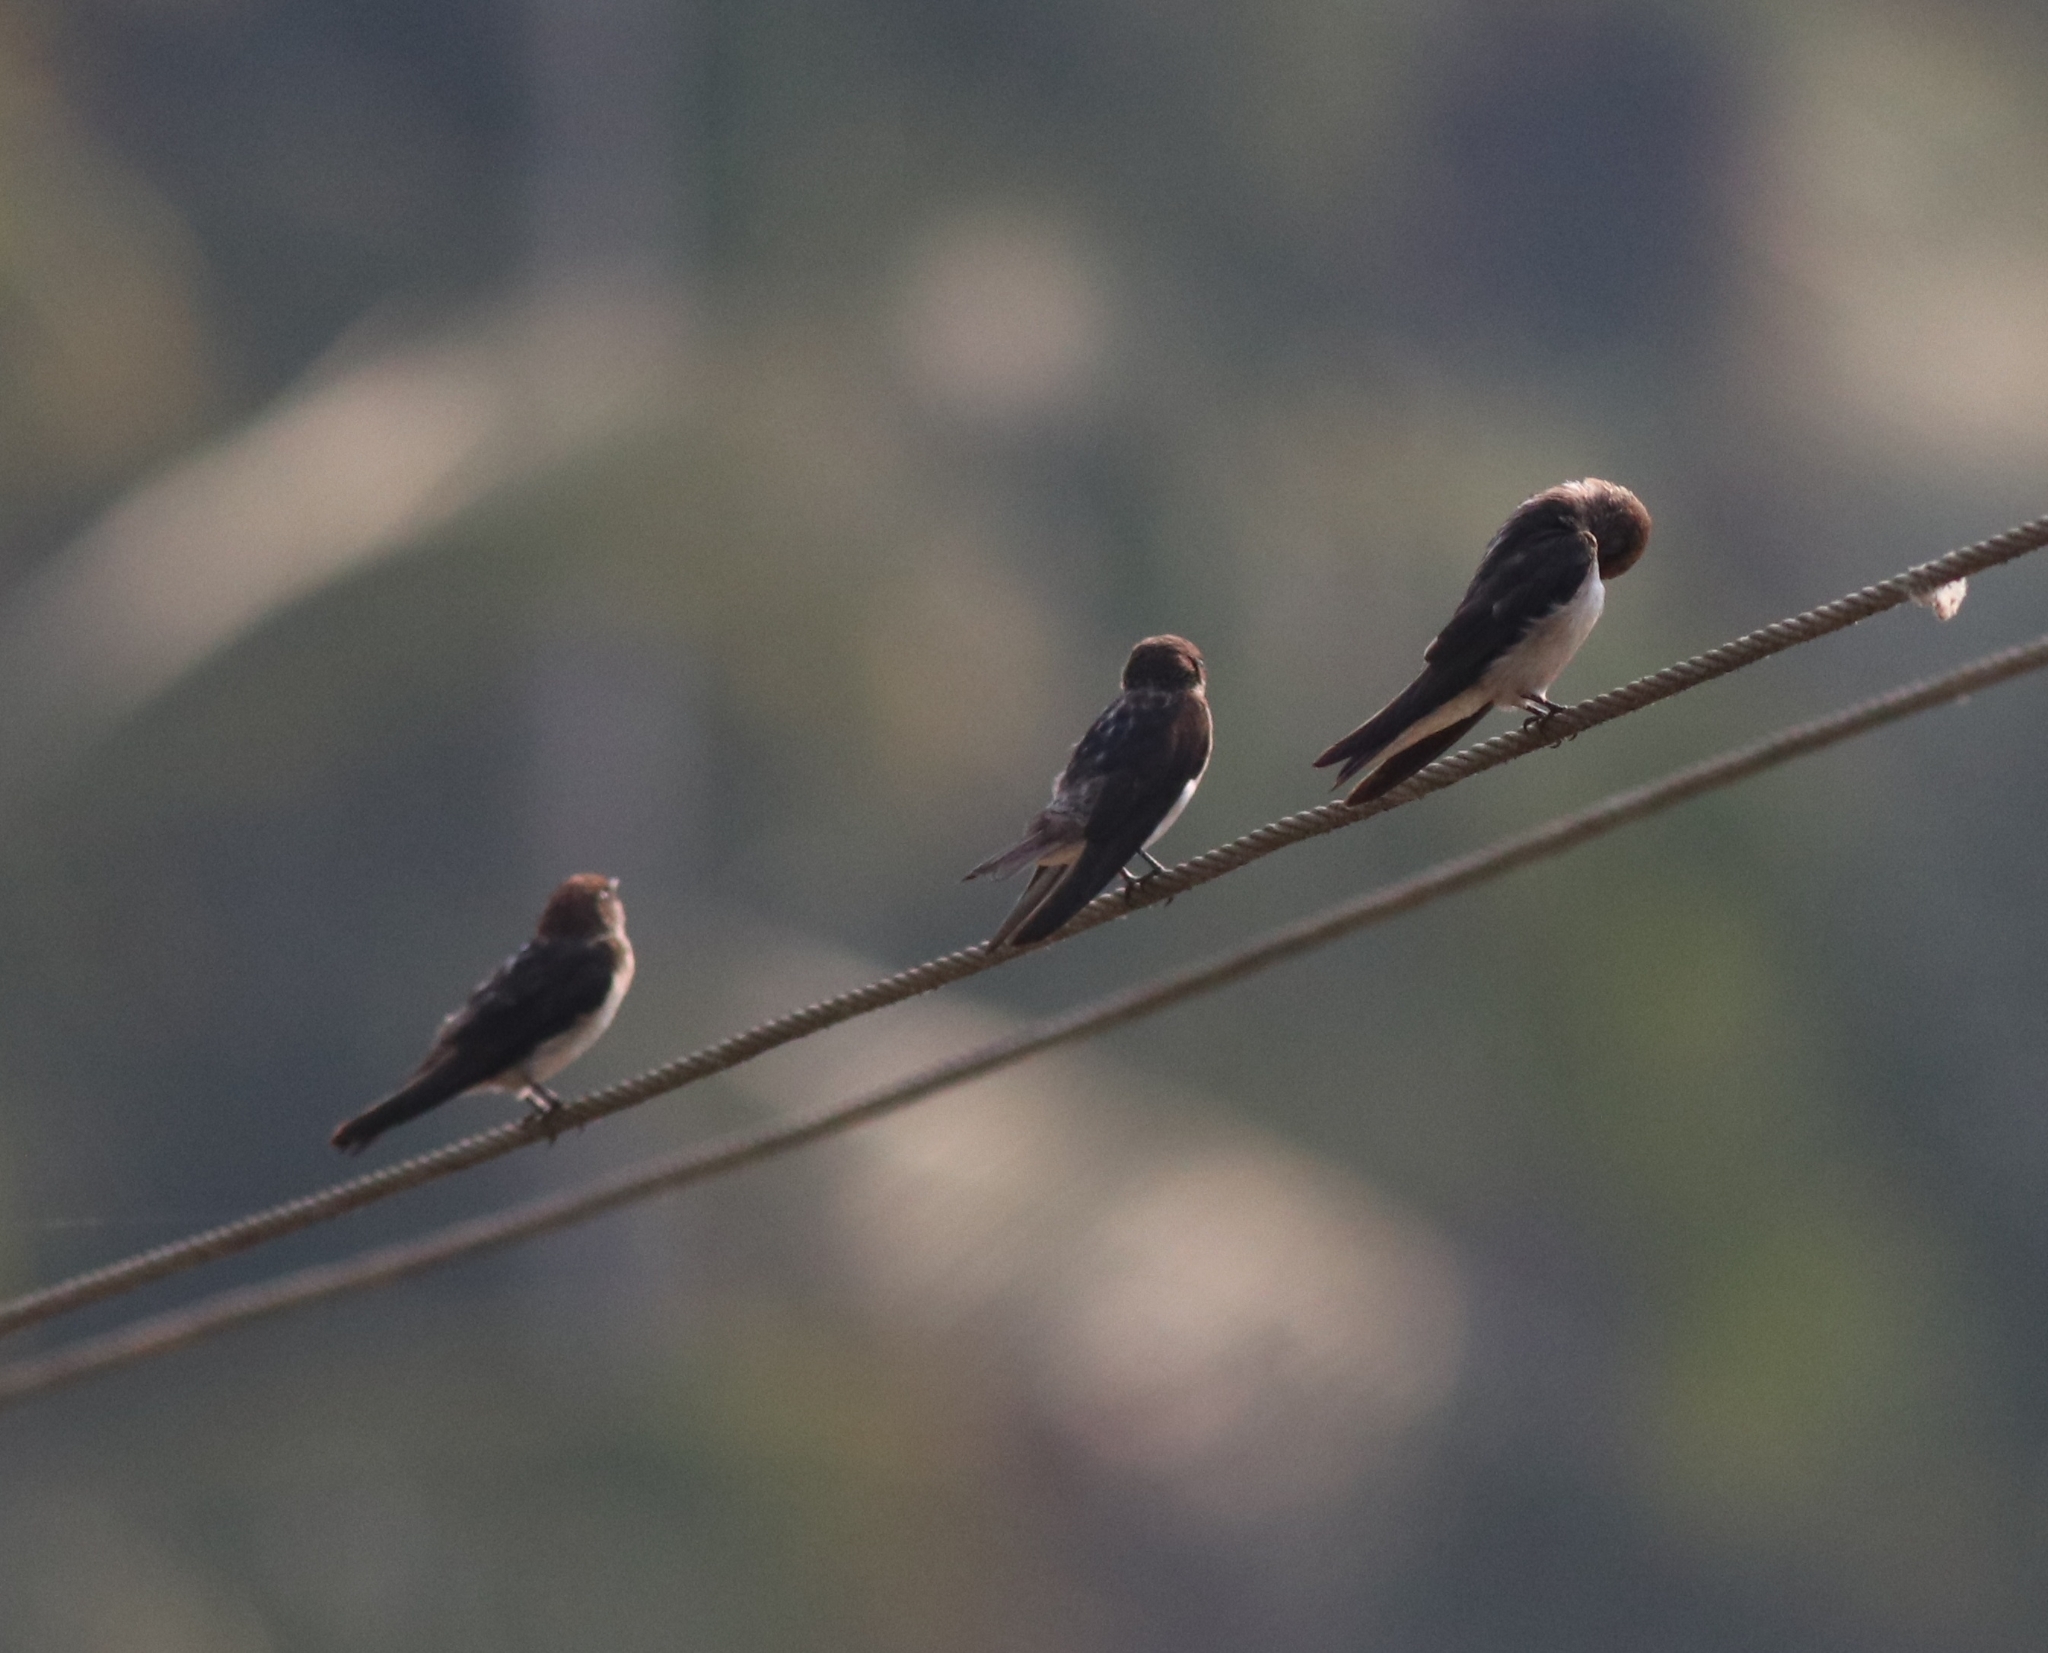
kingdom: Animalia
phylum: Chordata
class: Aves
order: Passeriformes
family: Hirundinidae
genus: Petrochelidon
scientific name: Petrochelidon fluvicola
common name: Streak-throated swallow
